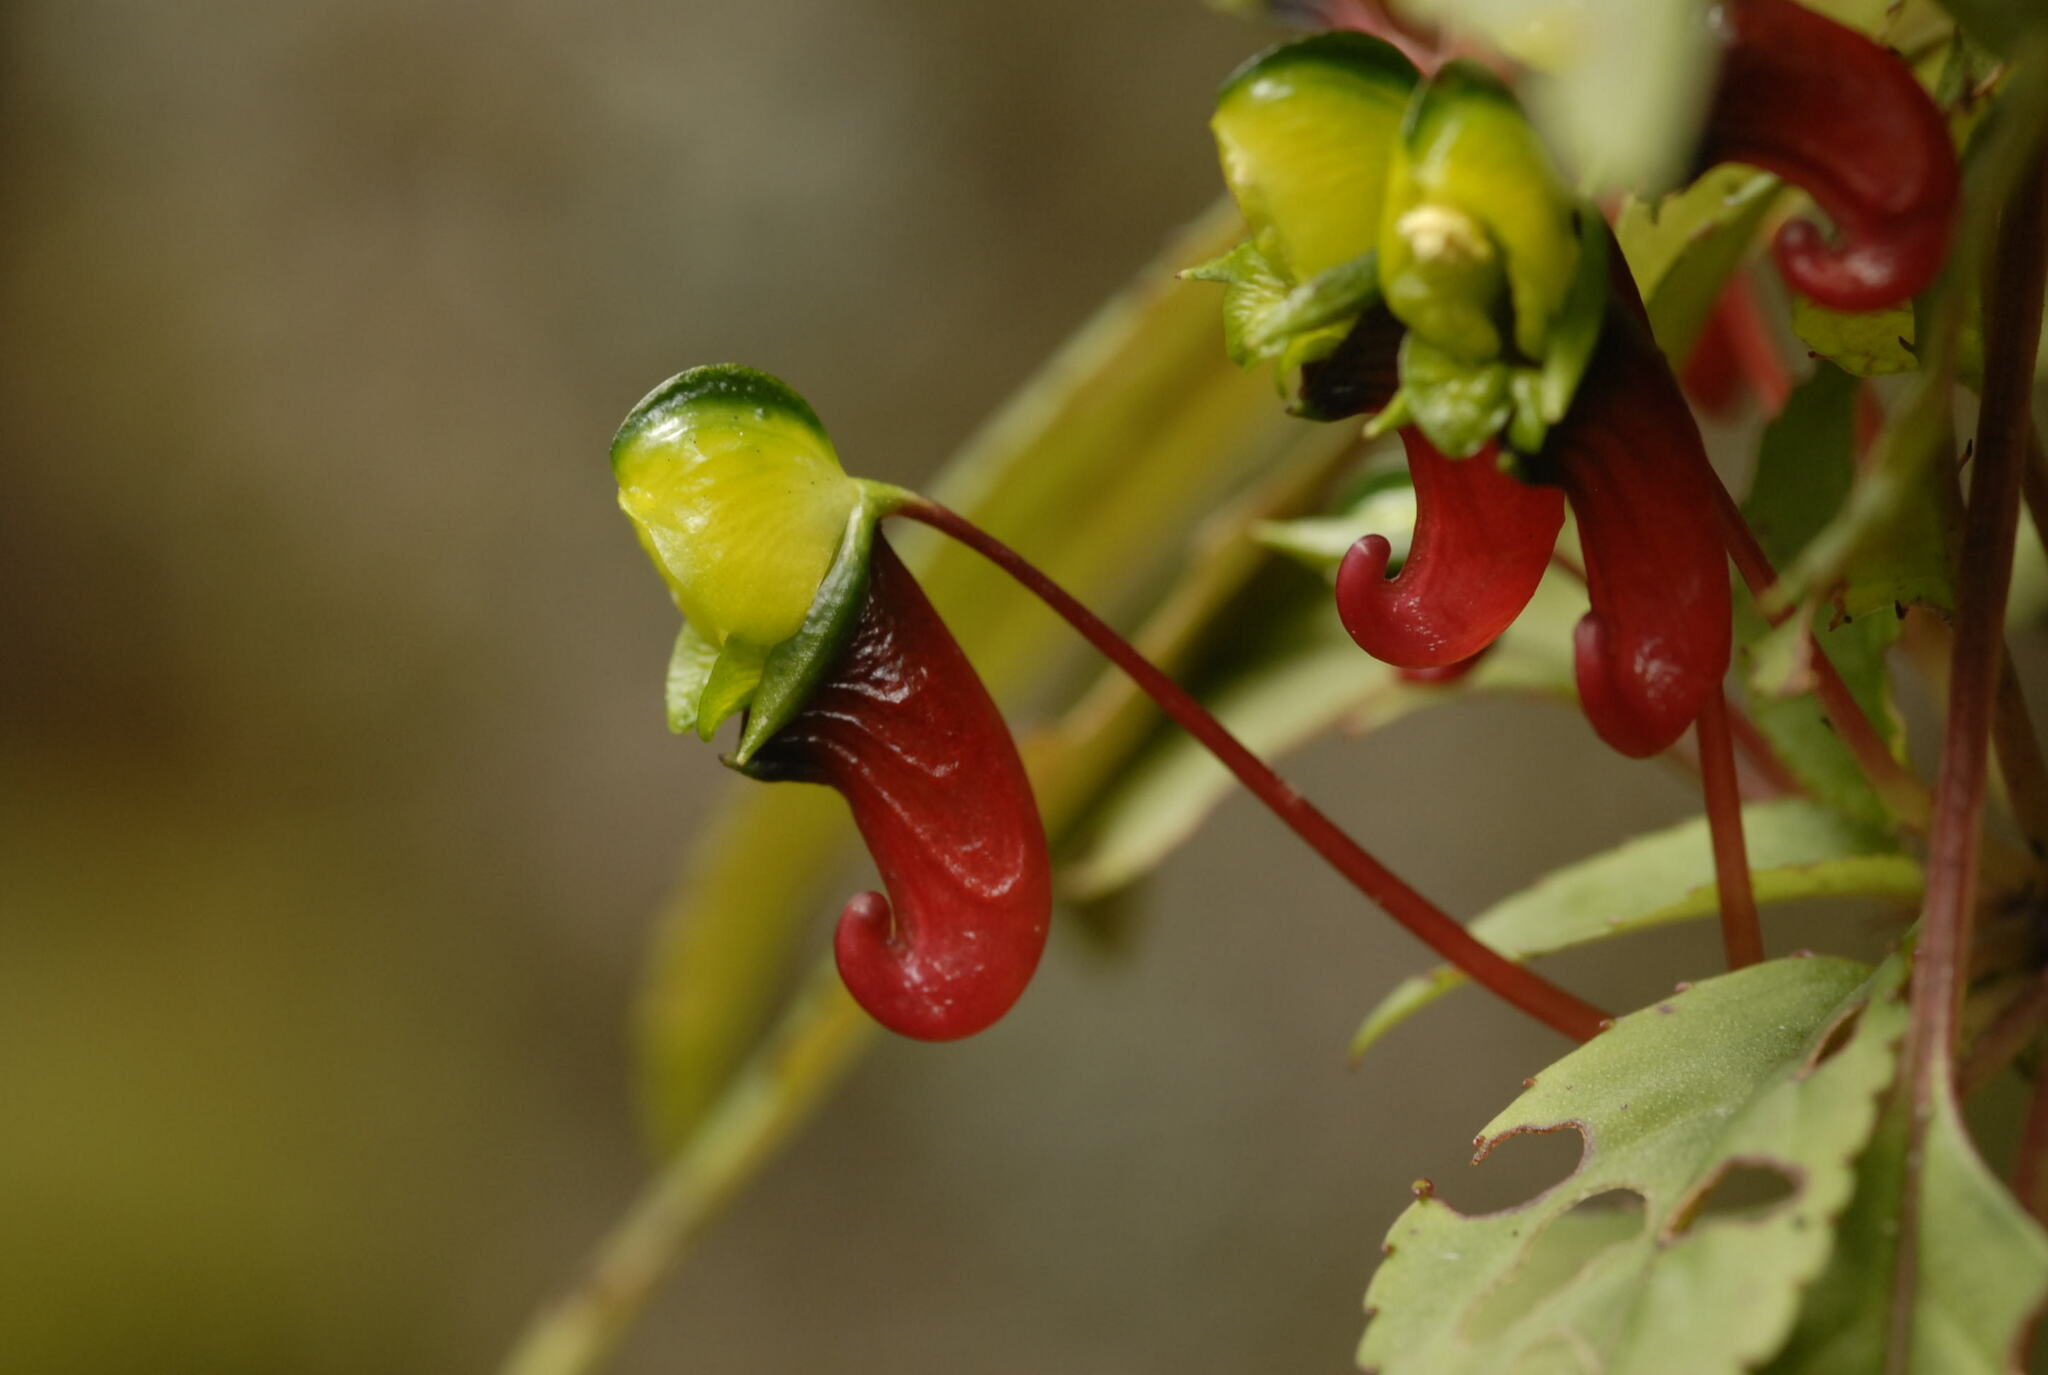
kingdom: Plantae
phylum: Tracheophyta
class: Magnoliopsida
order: Ericales
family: Balsaminaceae
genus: Impatiens
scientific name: Impatiens parasitica
